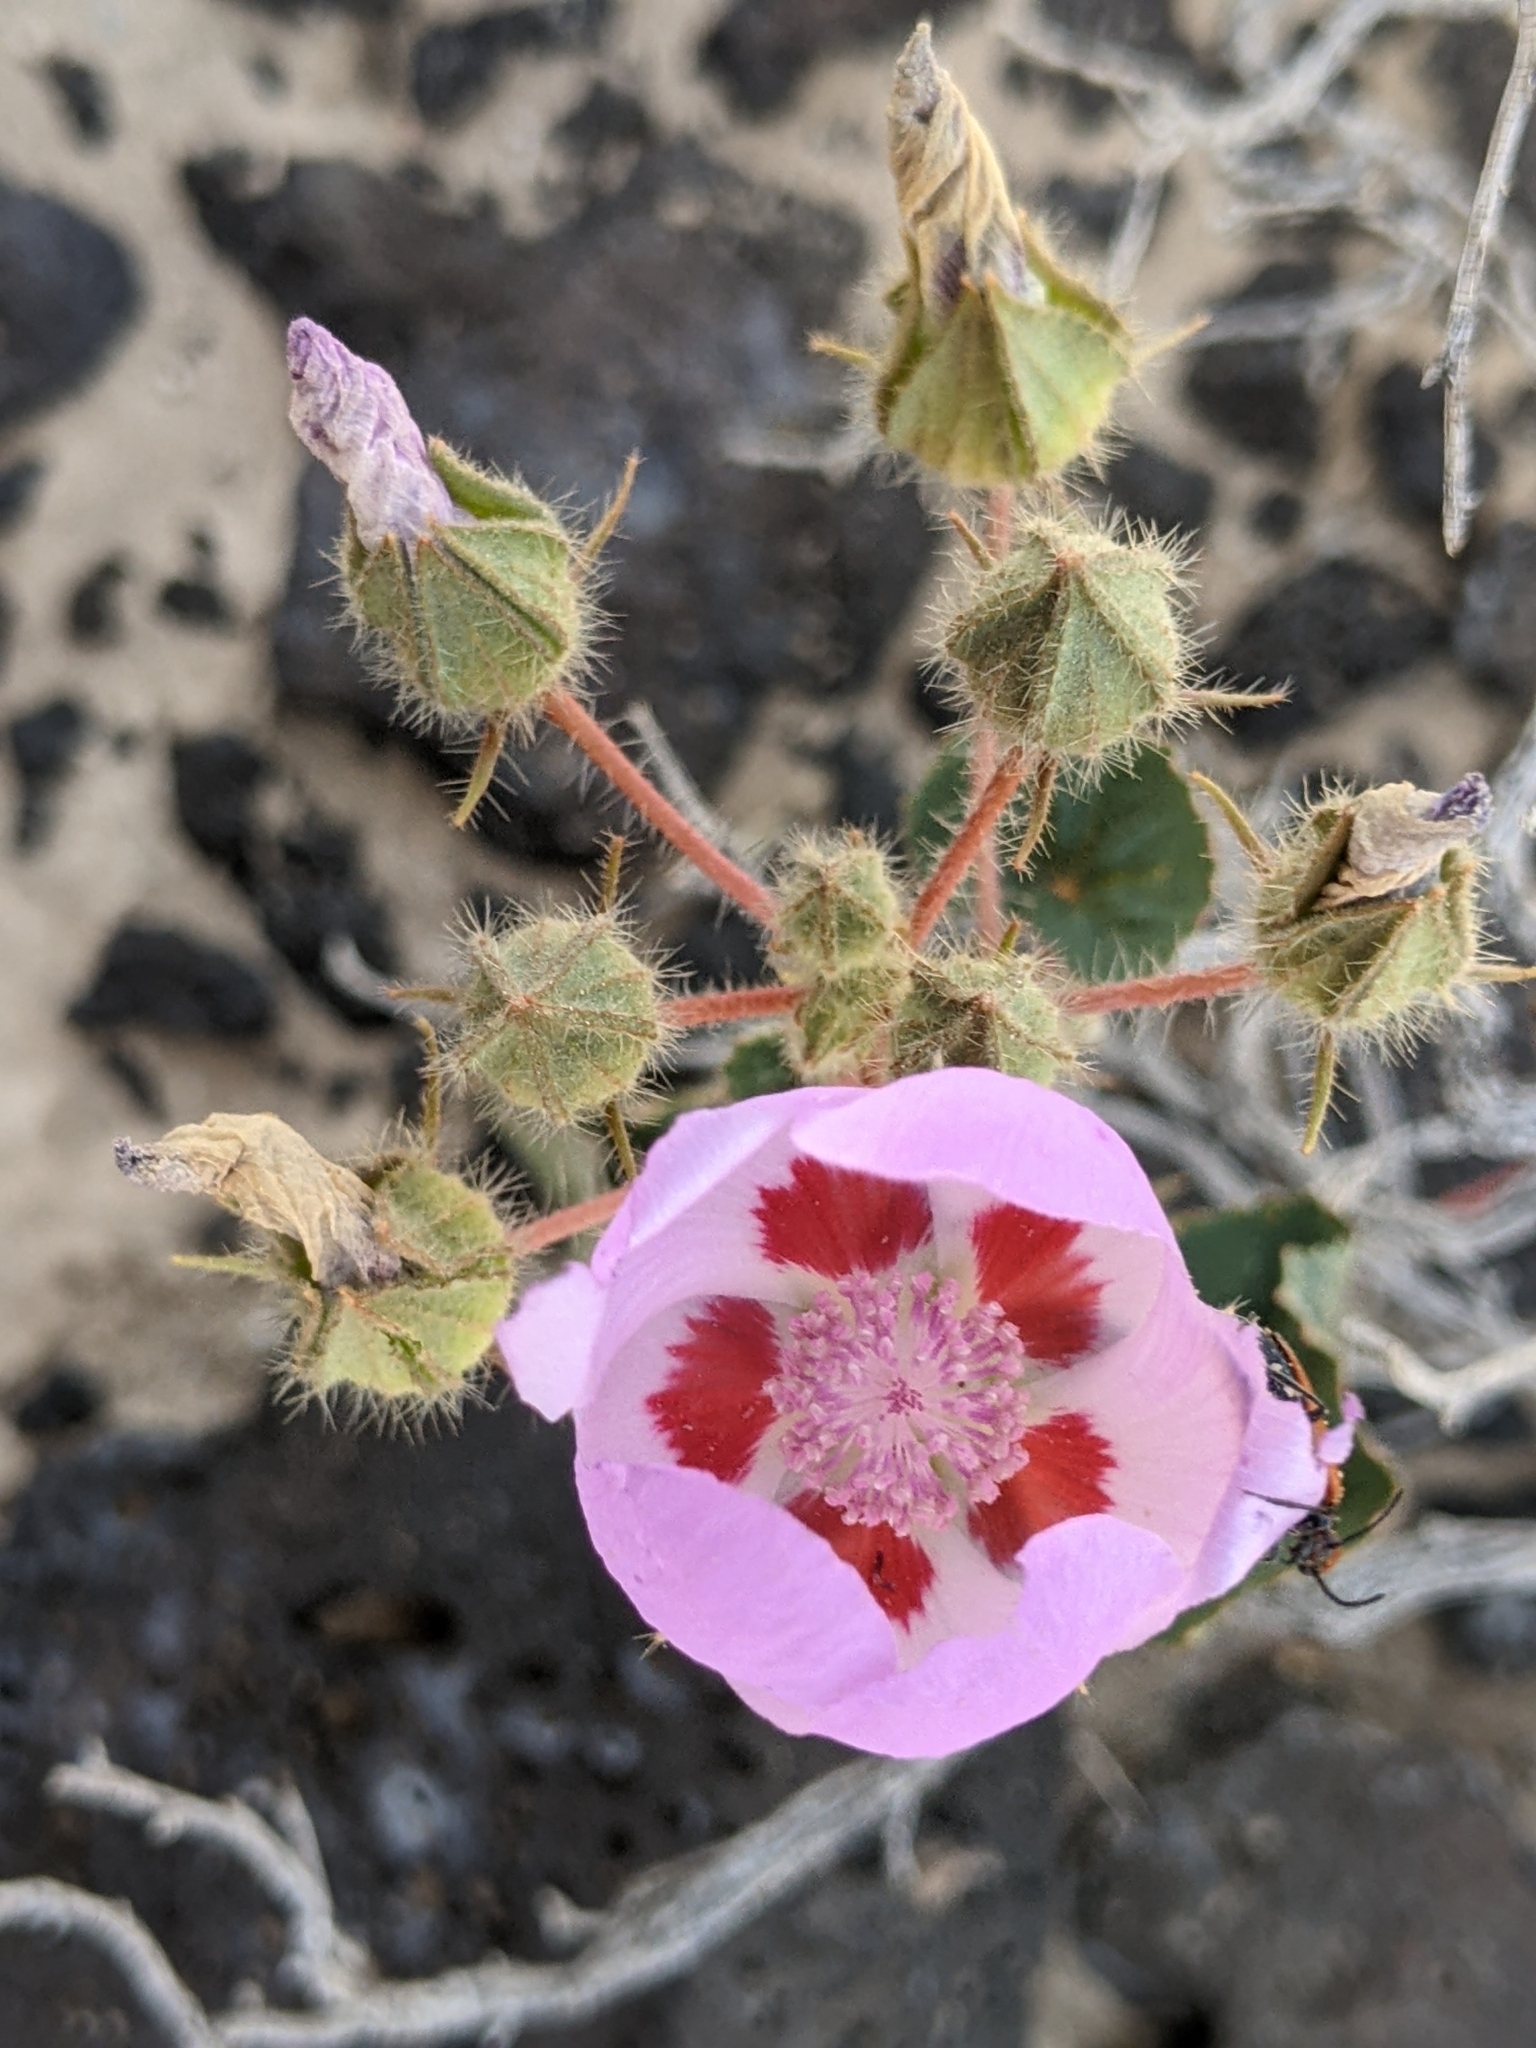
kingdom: Plantae
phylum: Tracheophyta
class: Magnoliopsida
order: Malvales
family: Malvaceae
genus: Eremalche
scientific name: Eremalche rotundifolia
